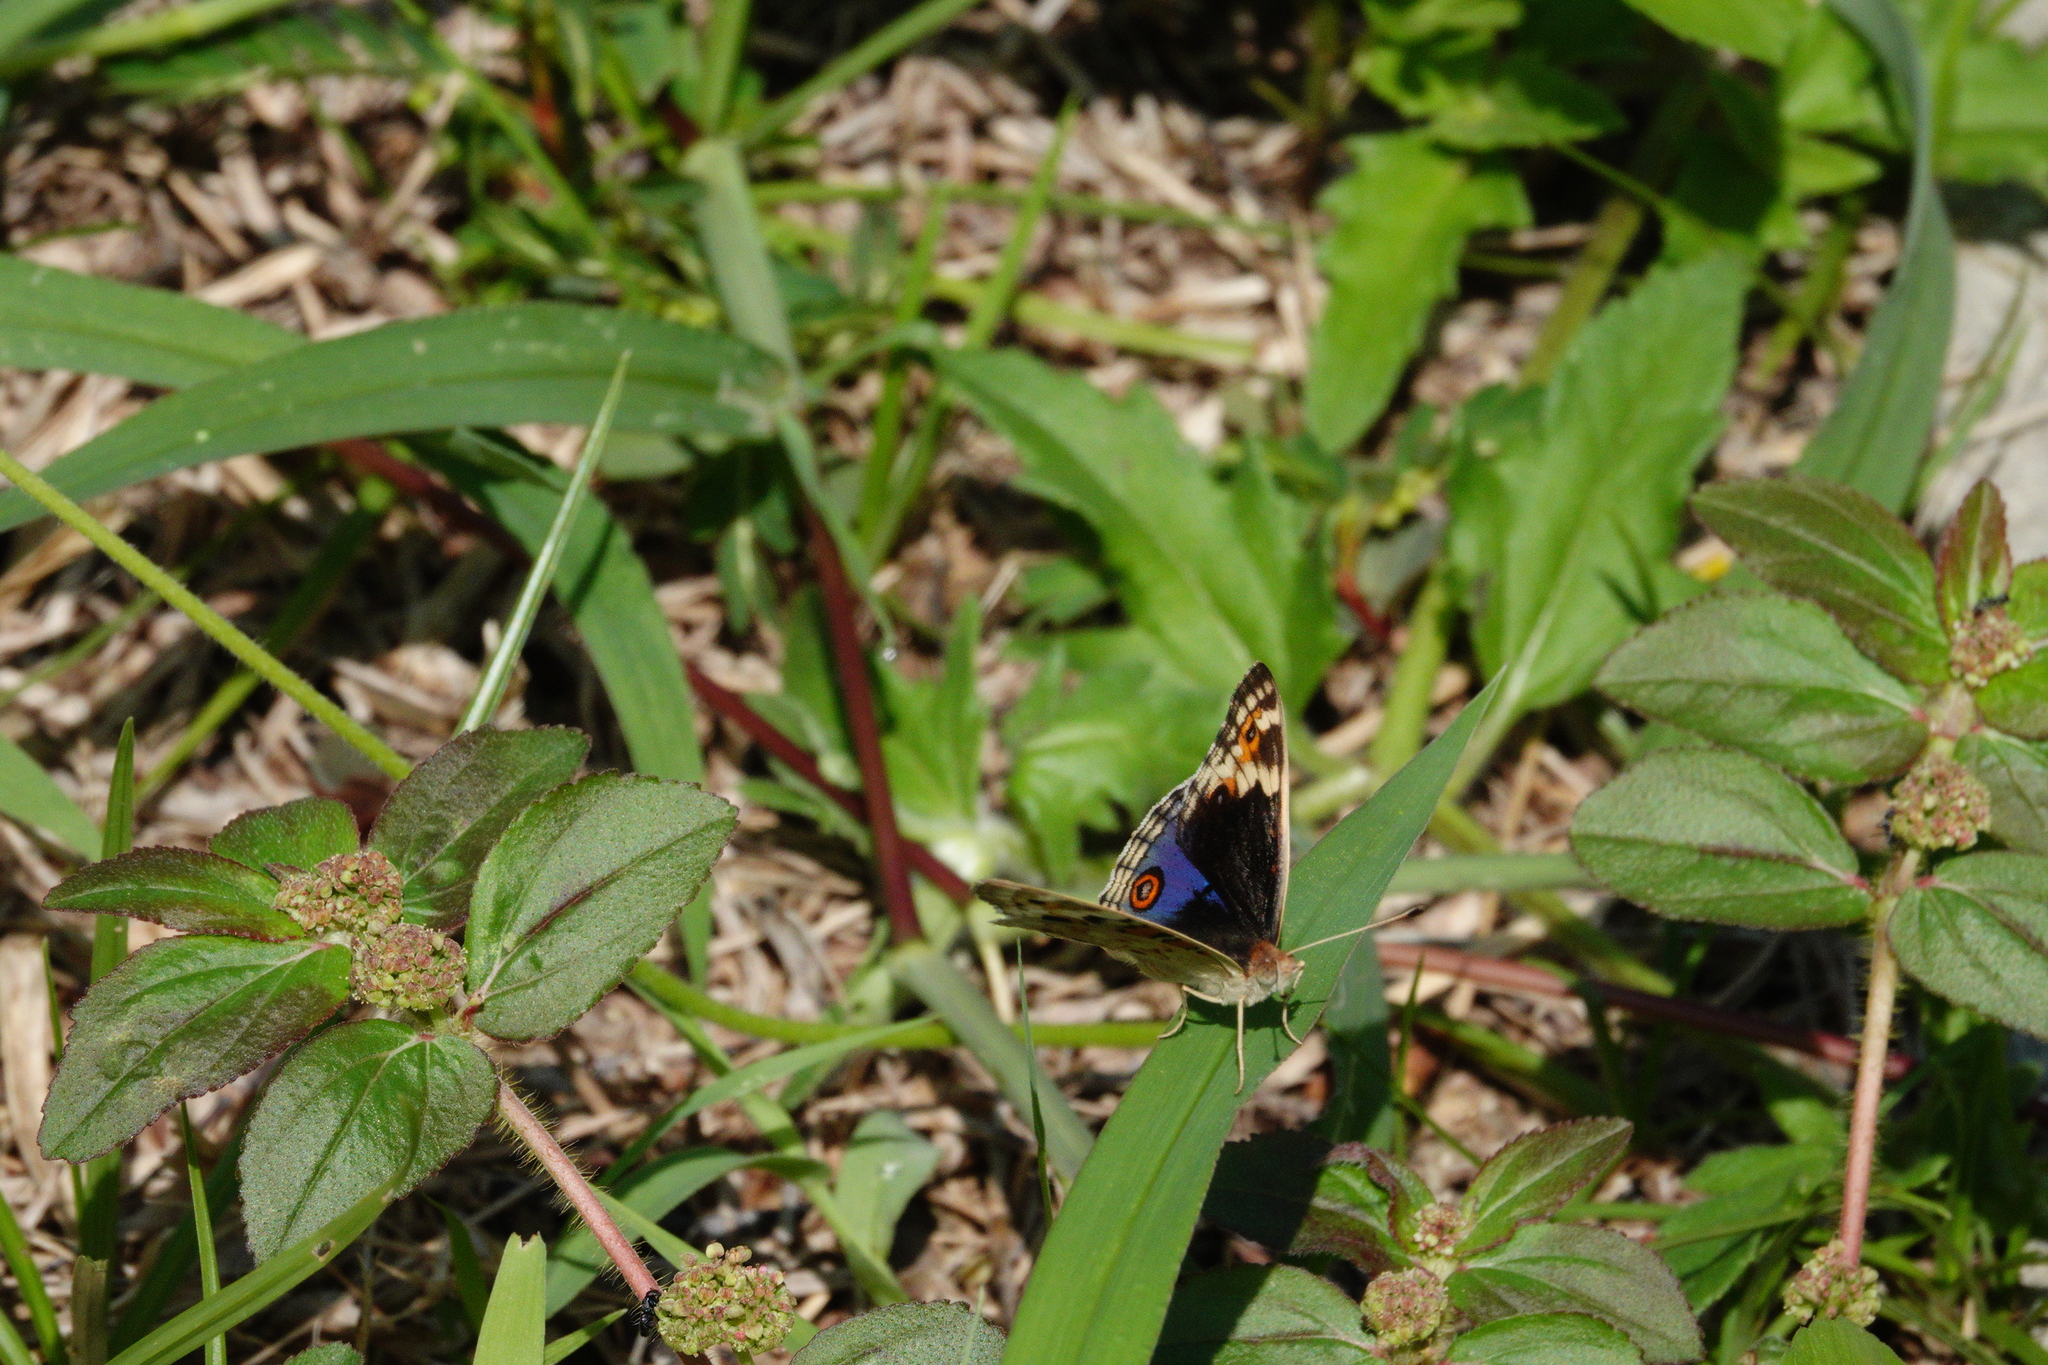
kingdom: Animalia
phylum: Arthropoda
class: Insecta
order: Lepidoptera
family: Nymphalidae
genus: Junonia
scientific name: Junonia orithya
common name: Blue pansy
